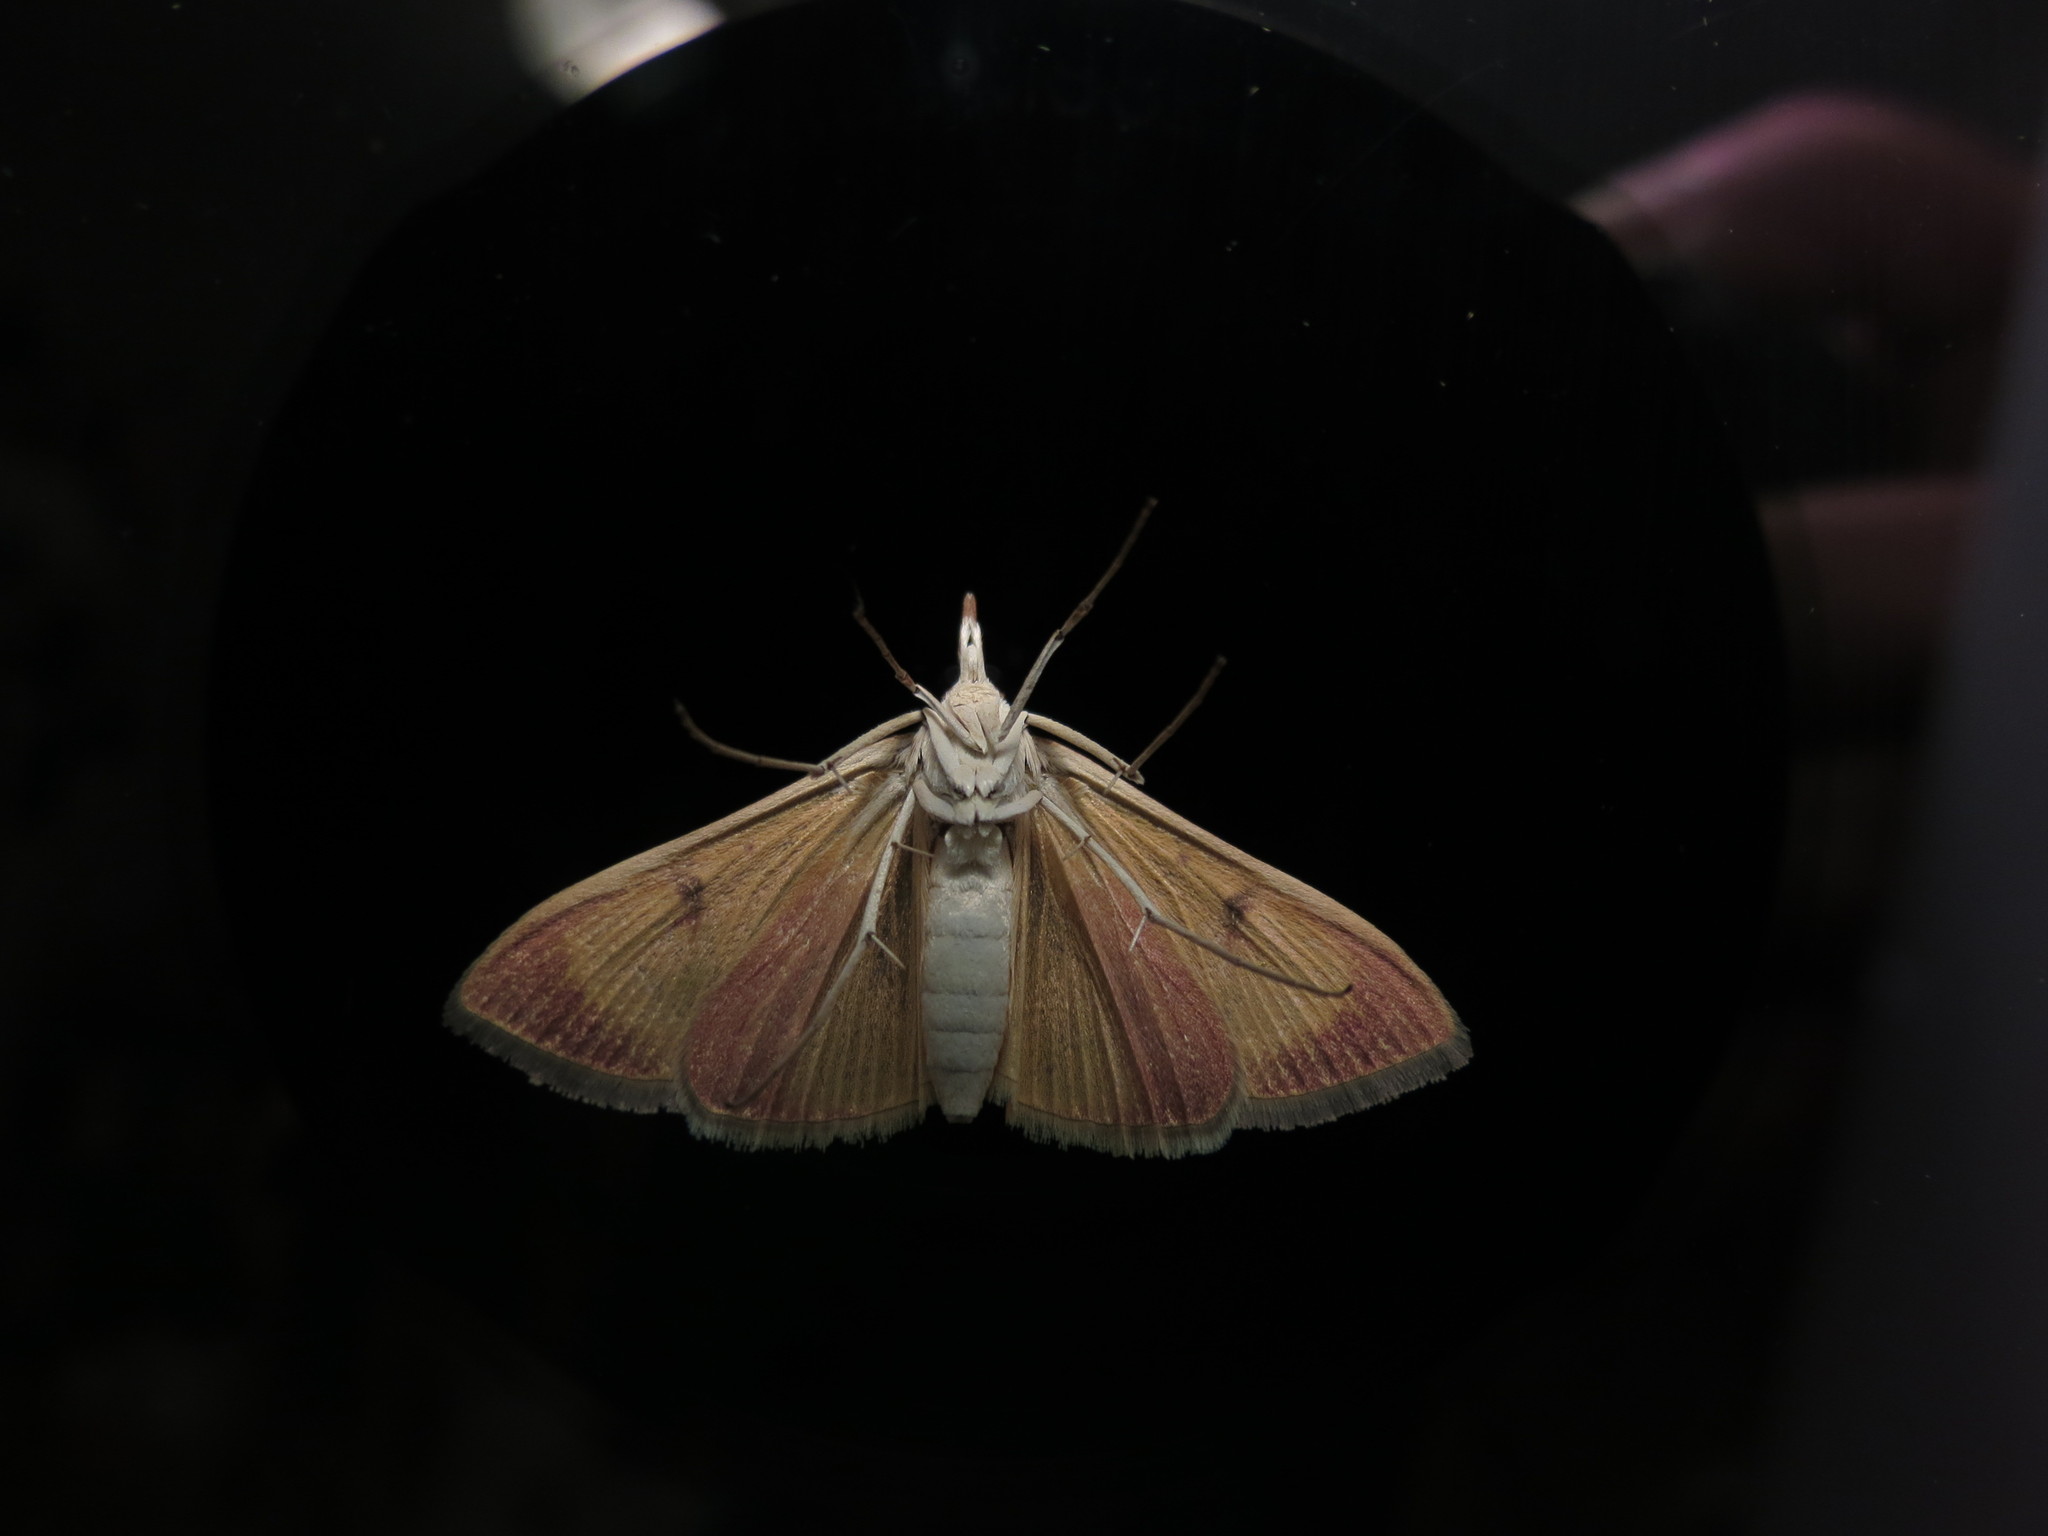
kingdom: Animalia
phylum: Arthropoda
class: Insecta
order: Lepidoptera
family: Crambidae
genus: Uresiphita
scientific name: Uresiphita reversalis
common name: Genista broom moth
